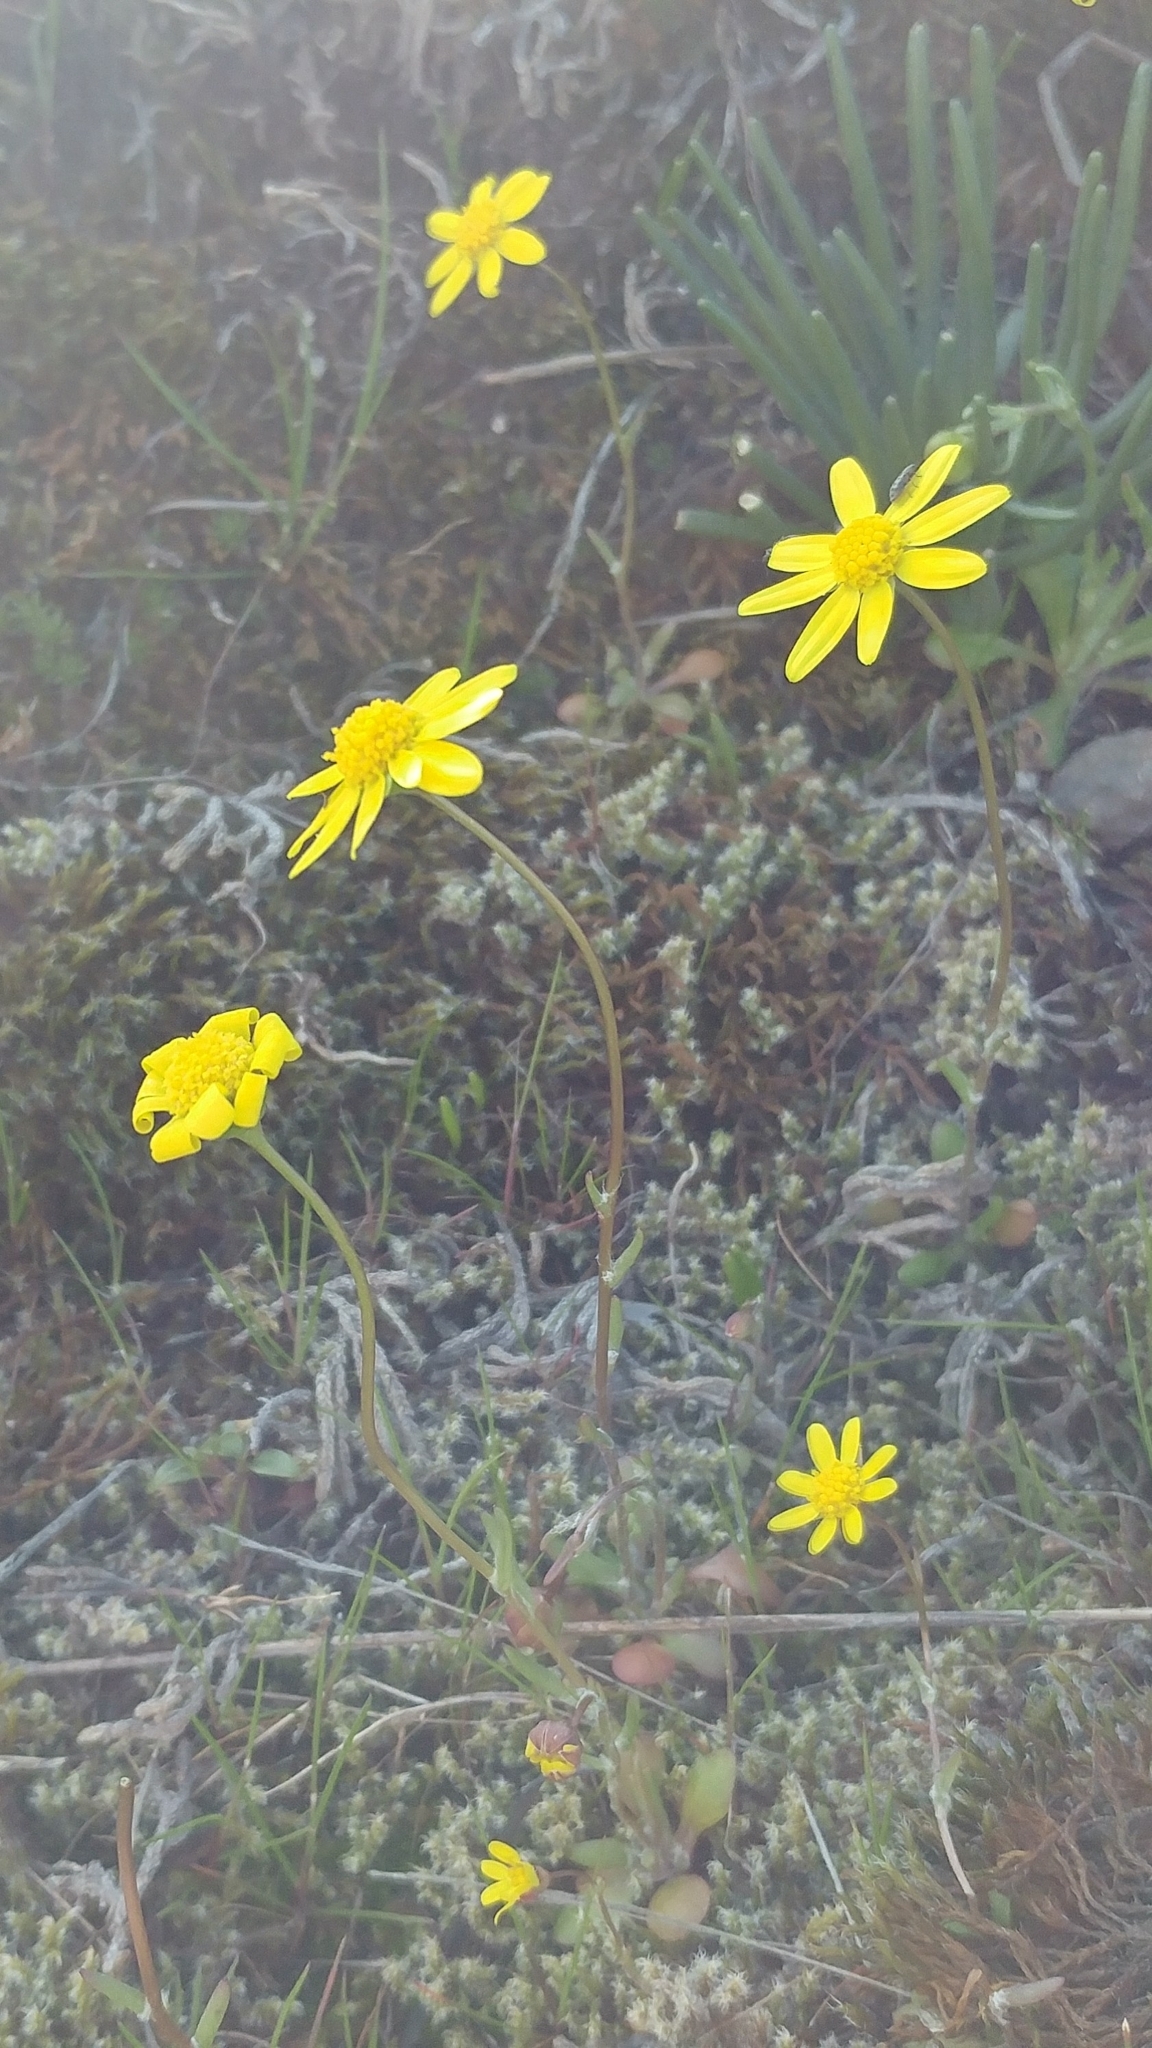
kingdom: Plantae
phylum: Tracheophyta
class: Magnoliopsida
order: Asterales
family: Asteraceae
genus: Crocidium
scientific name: Crocidium multicaule
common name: Common spring gold
